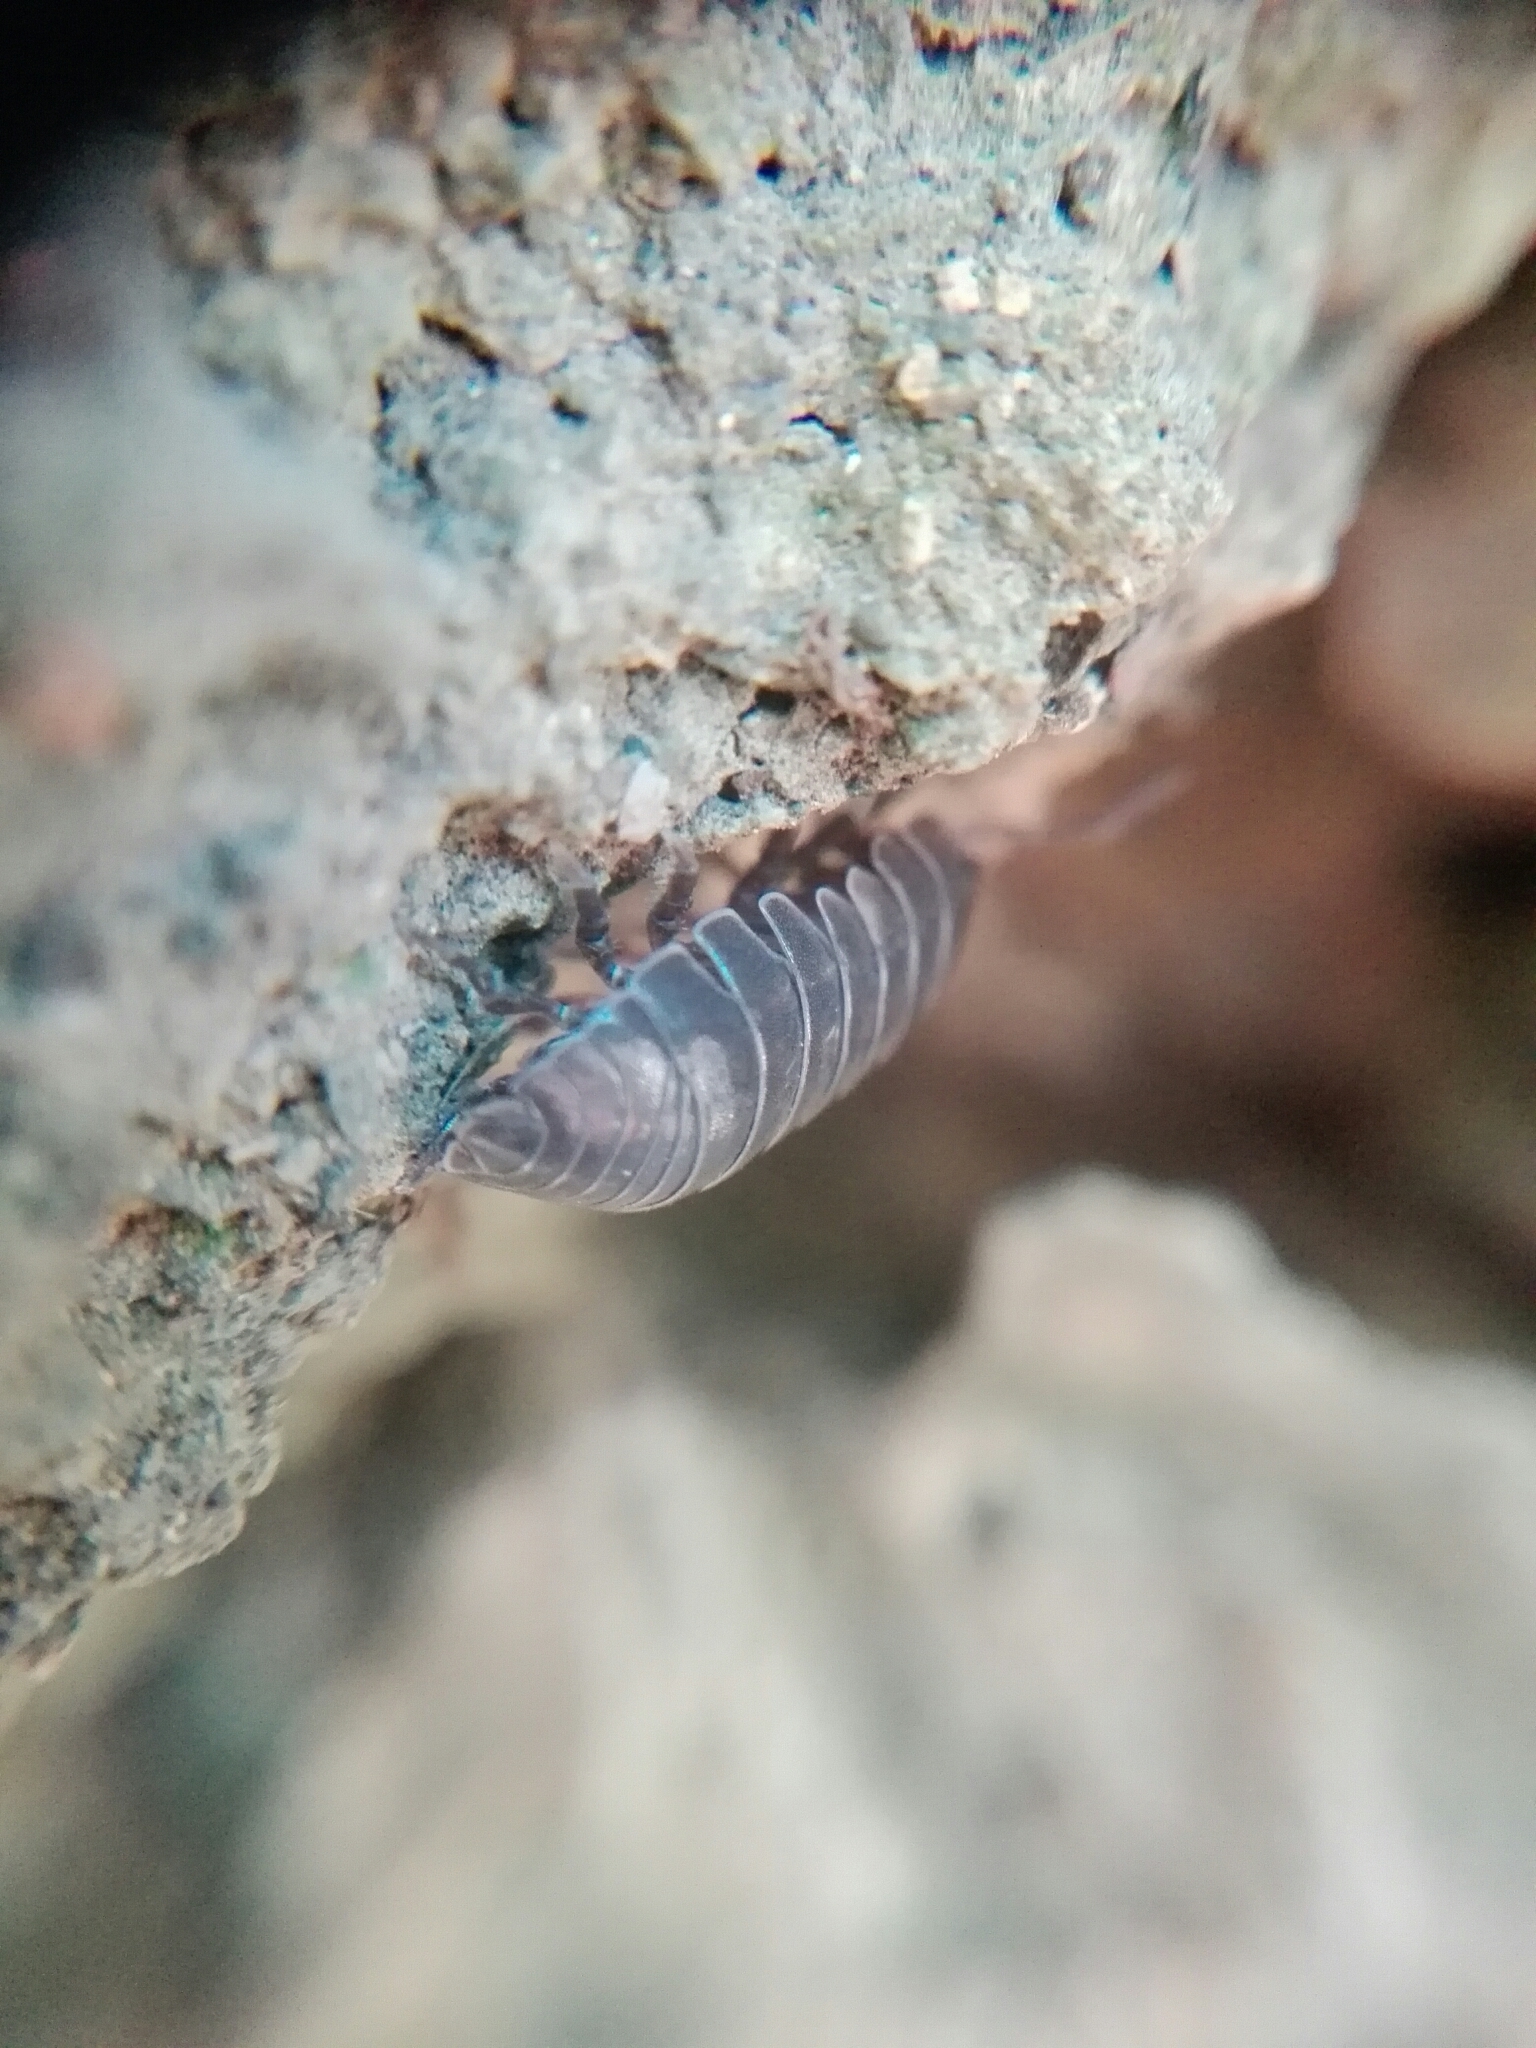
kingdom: Animalia
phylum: Arthropoda
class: Malacostraca
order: Isopoda
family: Armadillidiidae
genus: Armadillidium
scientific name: Armadillidium vulgare
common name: Common pill woodlouse
